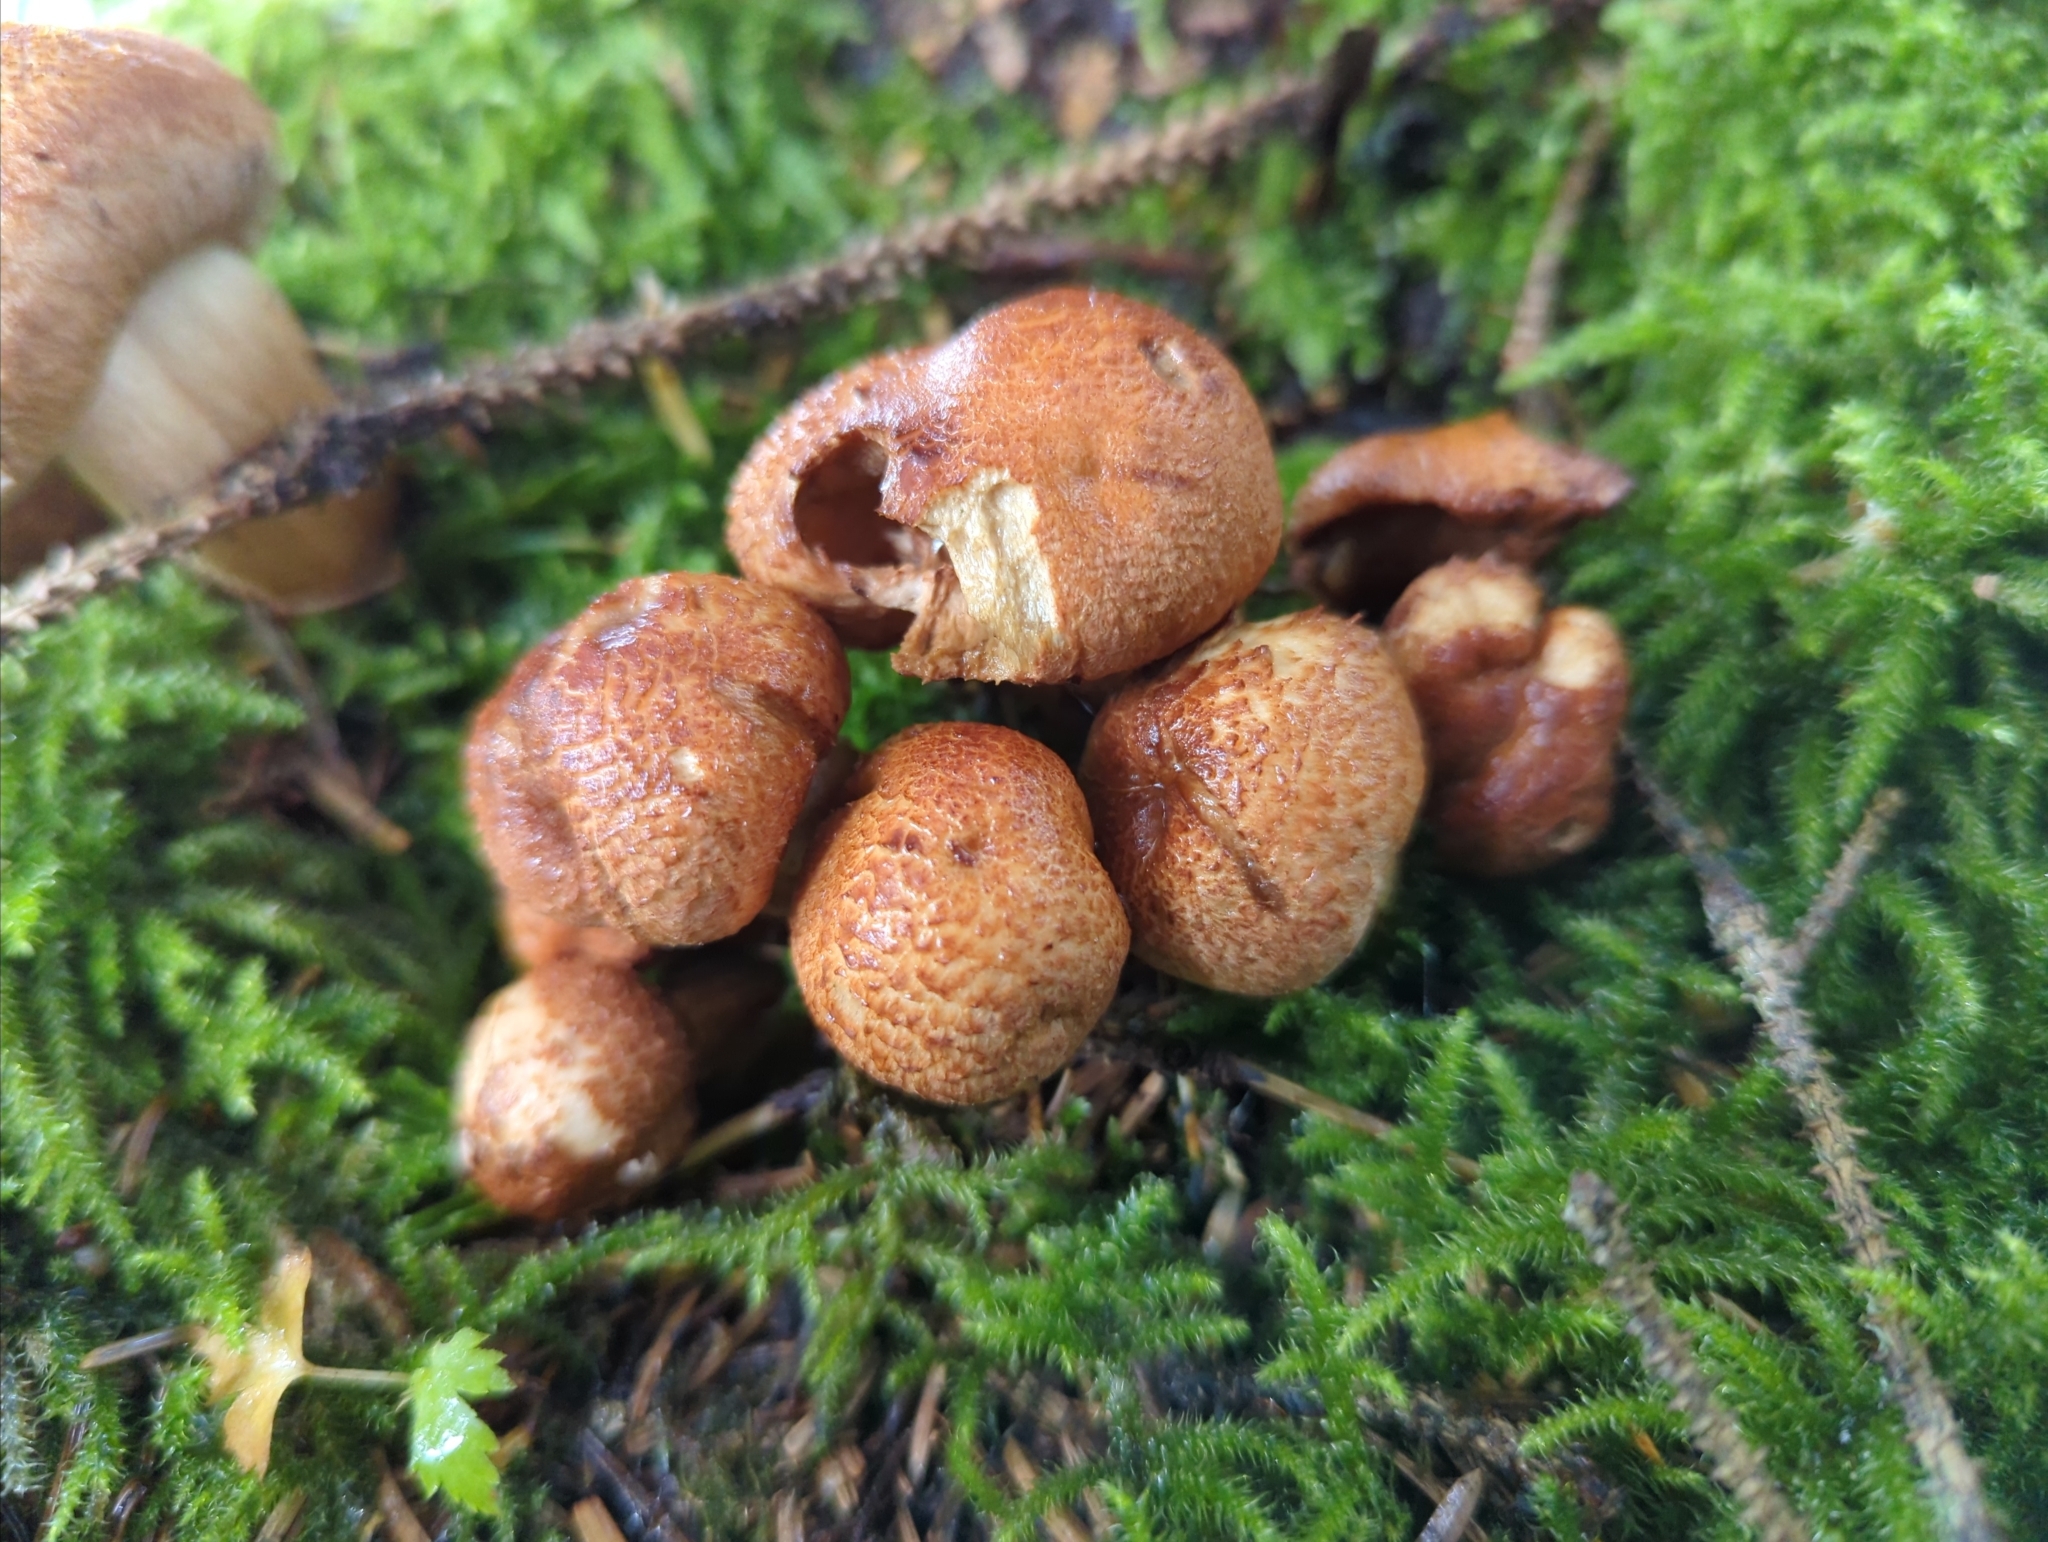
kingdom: Fungi
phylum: Basidiomycota
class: Agaricomycetes
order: Agaricales
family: Tricholomataceae
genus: Tricholoma
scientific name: Tricholoma vaccinum
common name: Scaly knight
